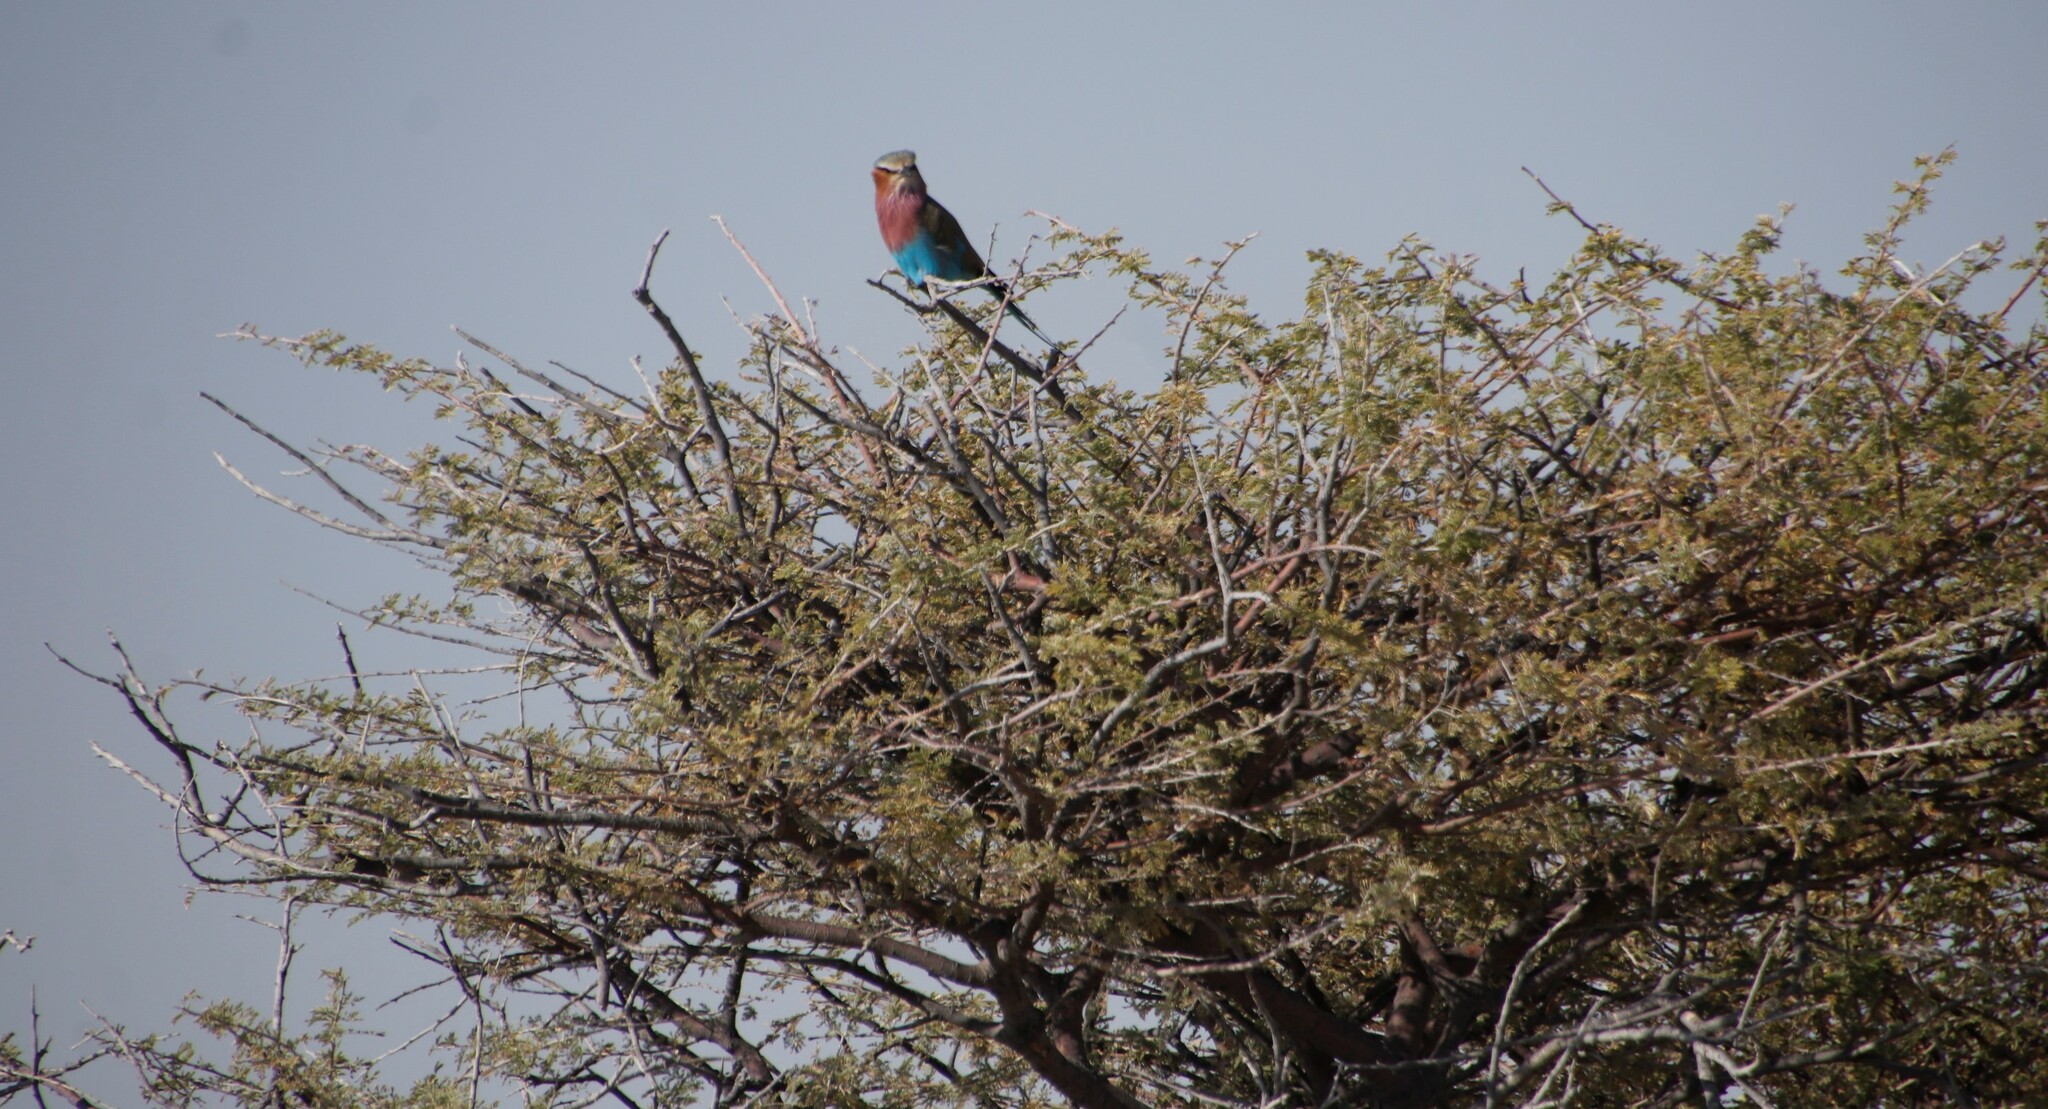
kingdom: Animalia
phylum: Chordata
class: Aves
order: Coraciiformes
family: Coraciidae
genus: Coracias
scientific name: Coracias caudatus
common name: Lilac-breasted roller
